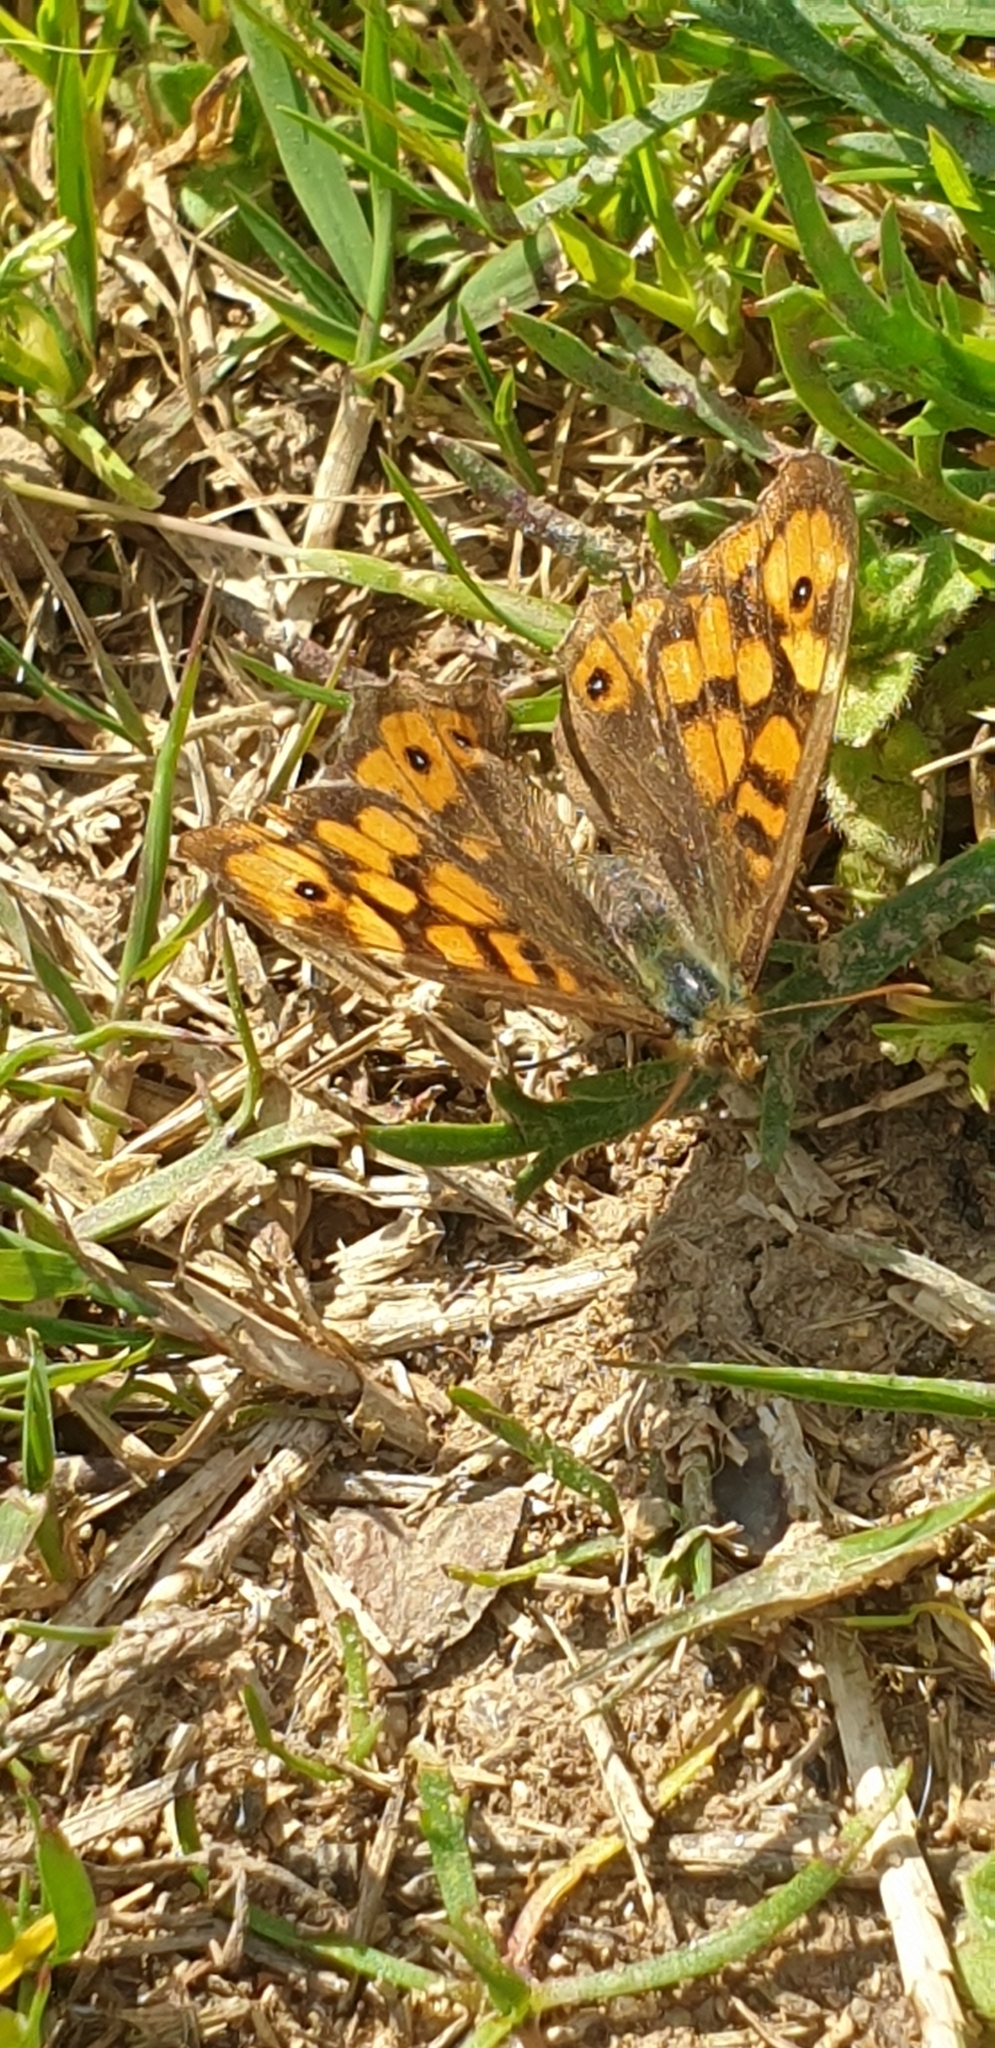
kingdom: Animalia
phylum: Arthropoda
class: Insecta
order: Lepidoptera
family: Nymphalidae
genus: Pararge
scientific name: Pararge aegeria
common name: Speckled wood
